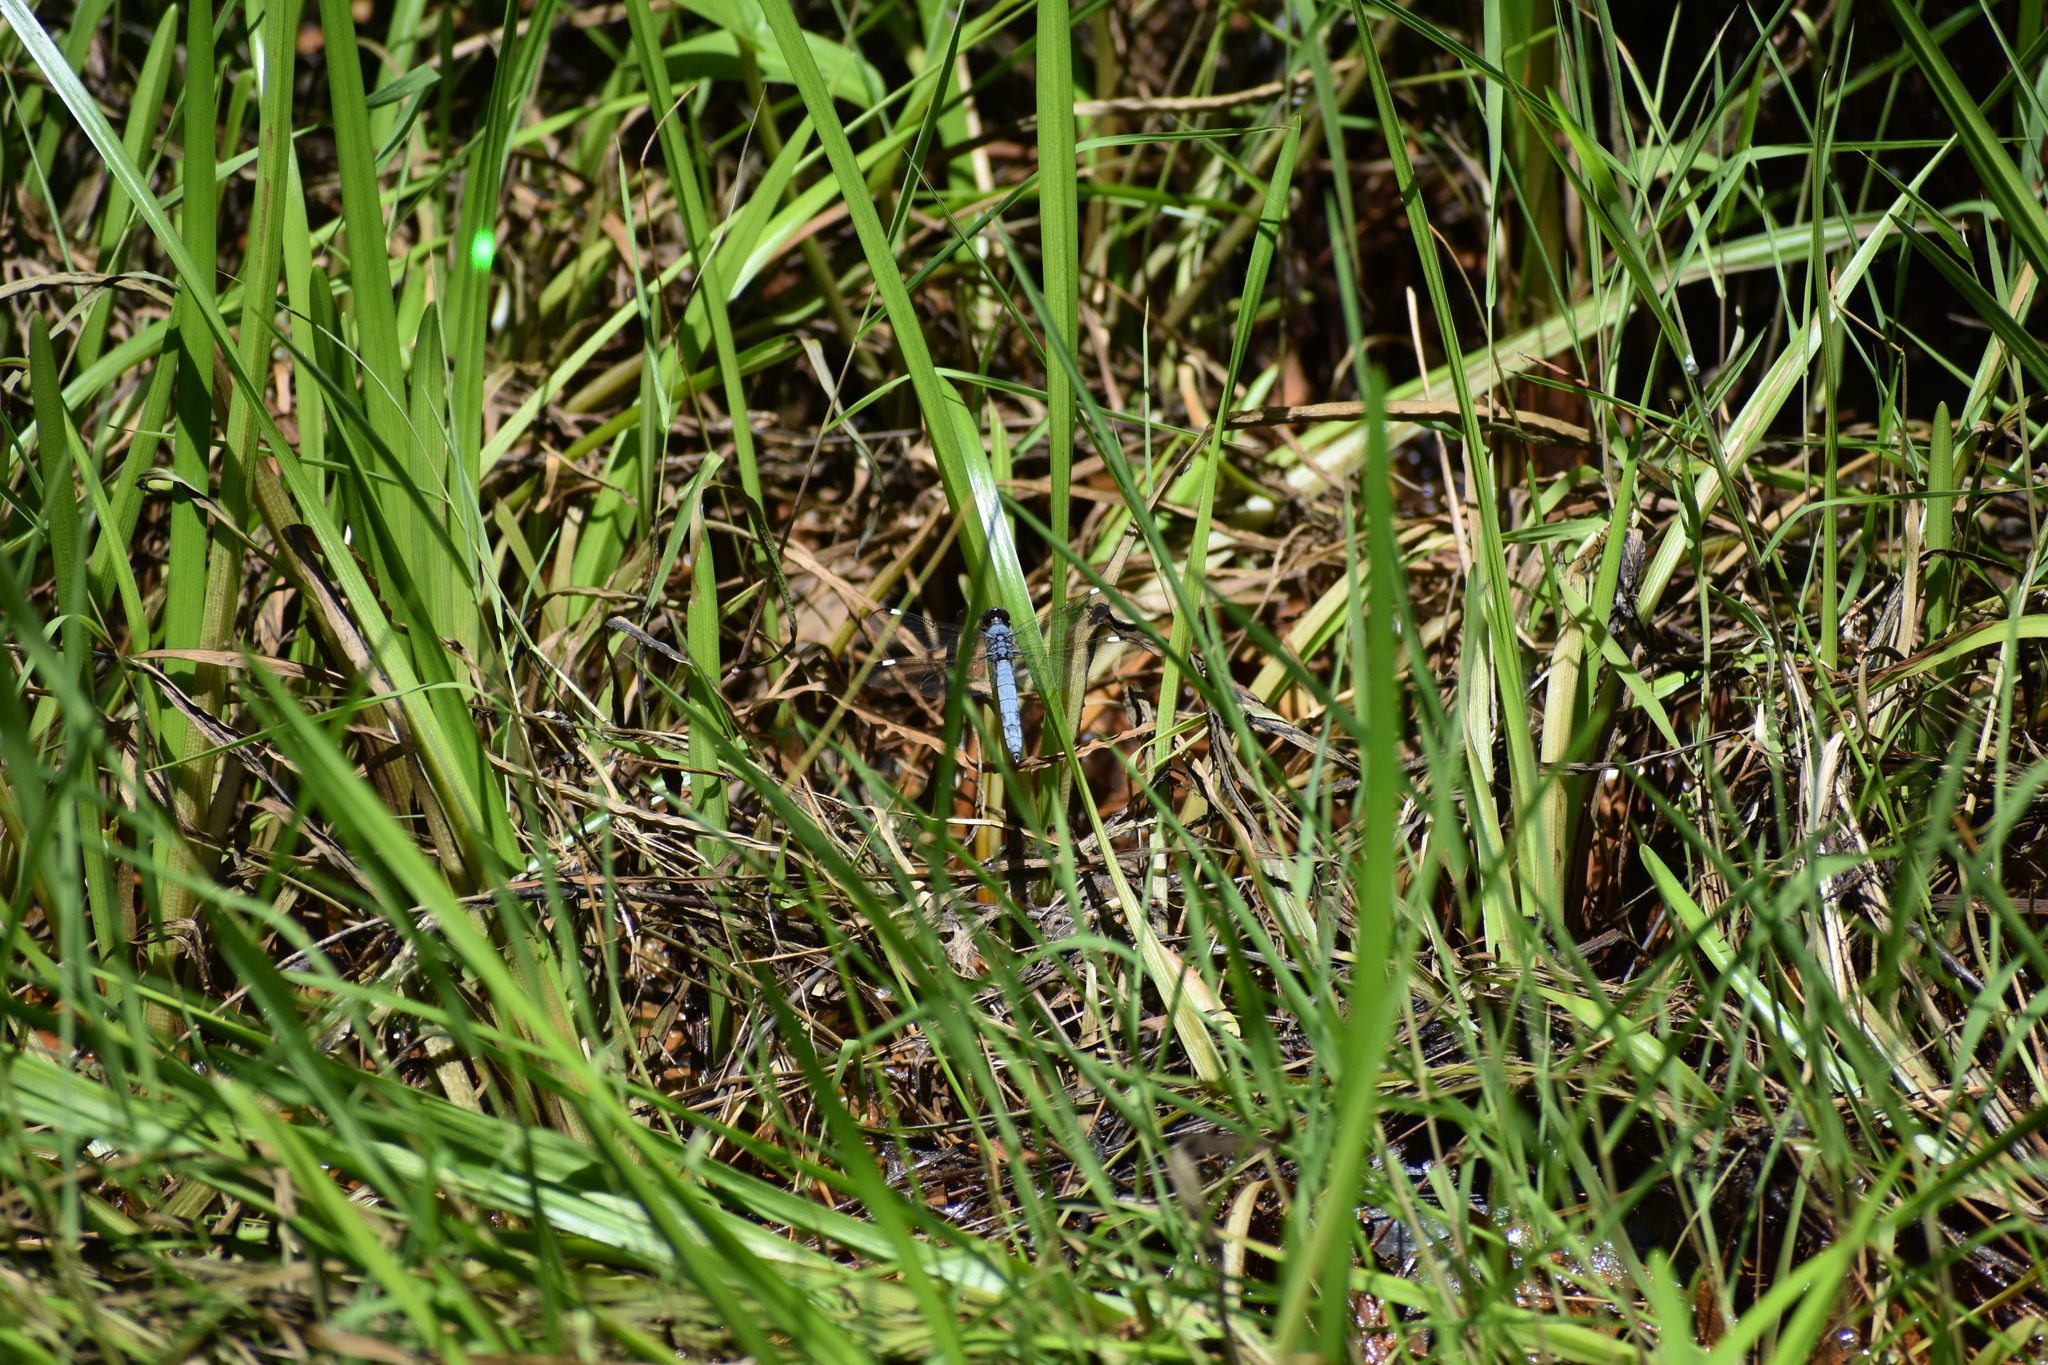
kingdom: Animalia
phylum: Arthropoda
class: Insecta
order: Odonata
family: Libellulidae
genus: Libellula
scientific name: Libellula cyanea
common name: Spangled skimmer
